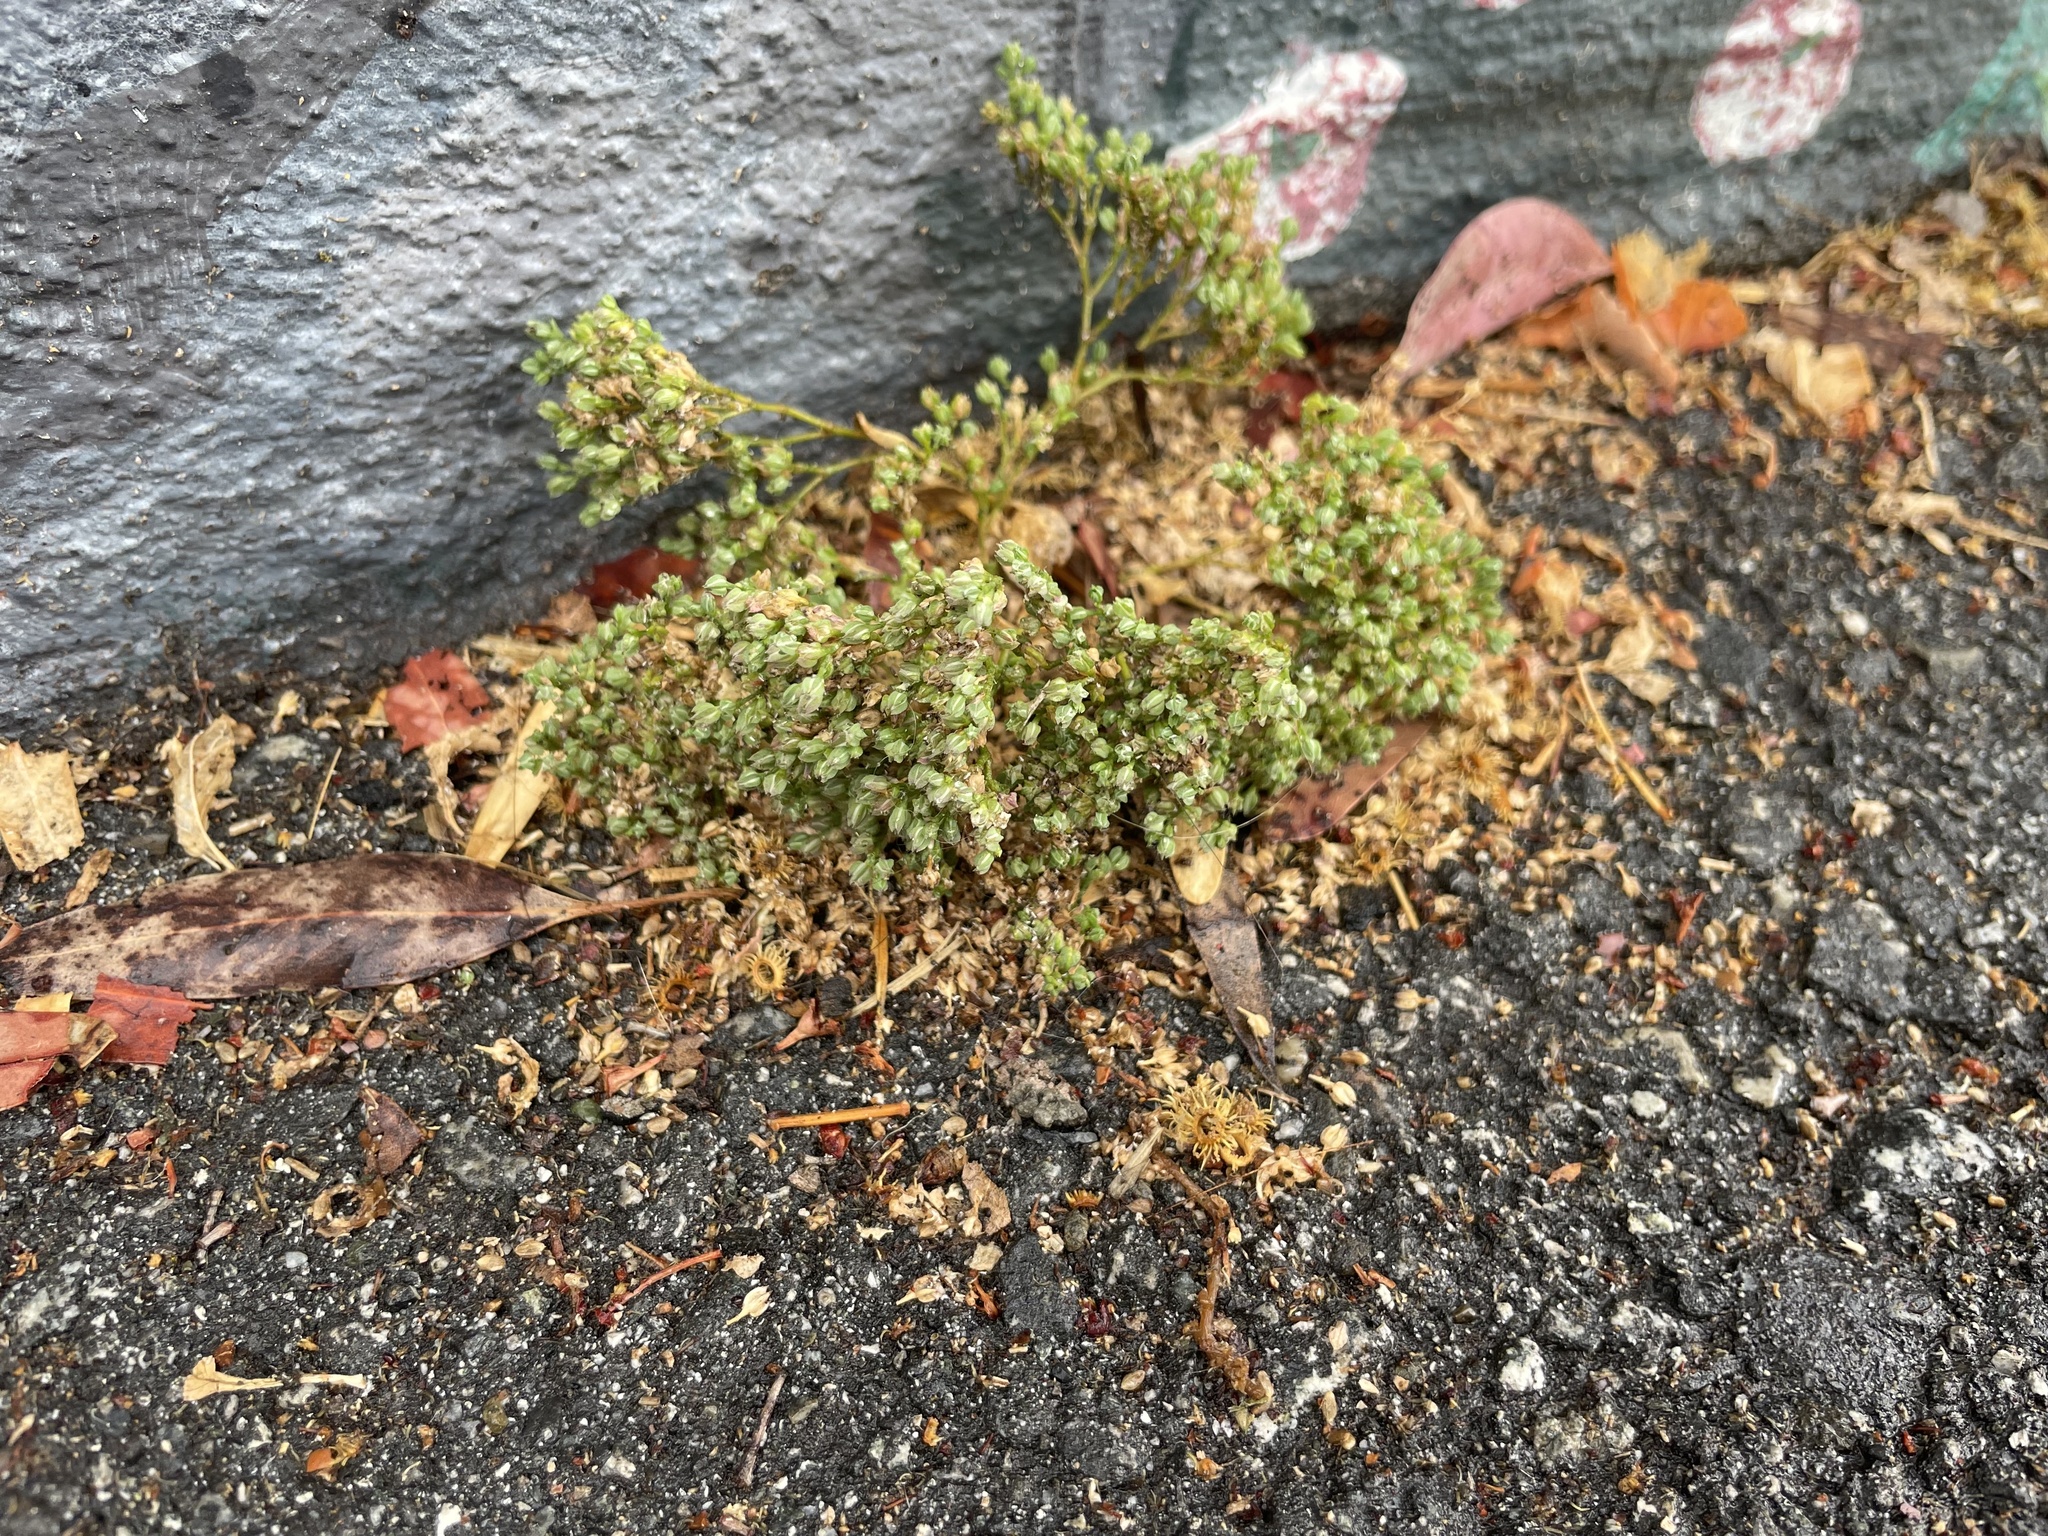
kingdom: Plantae
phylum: Tracheophyta
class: Magnoliopsida
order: Caryophyllales
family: Caryophyllaceae
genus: Polycarpon
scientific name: Polycarpon tetraphyllum
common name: Four-leaved all-seed
